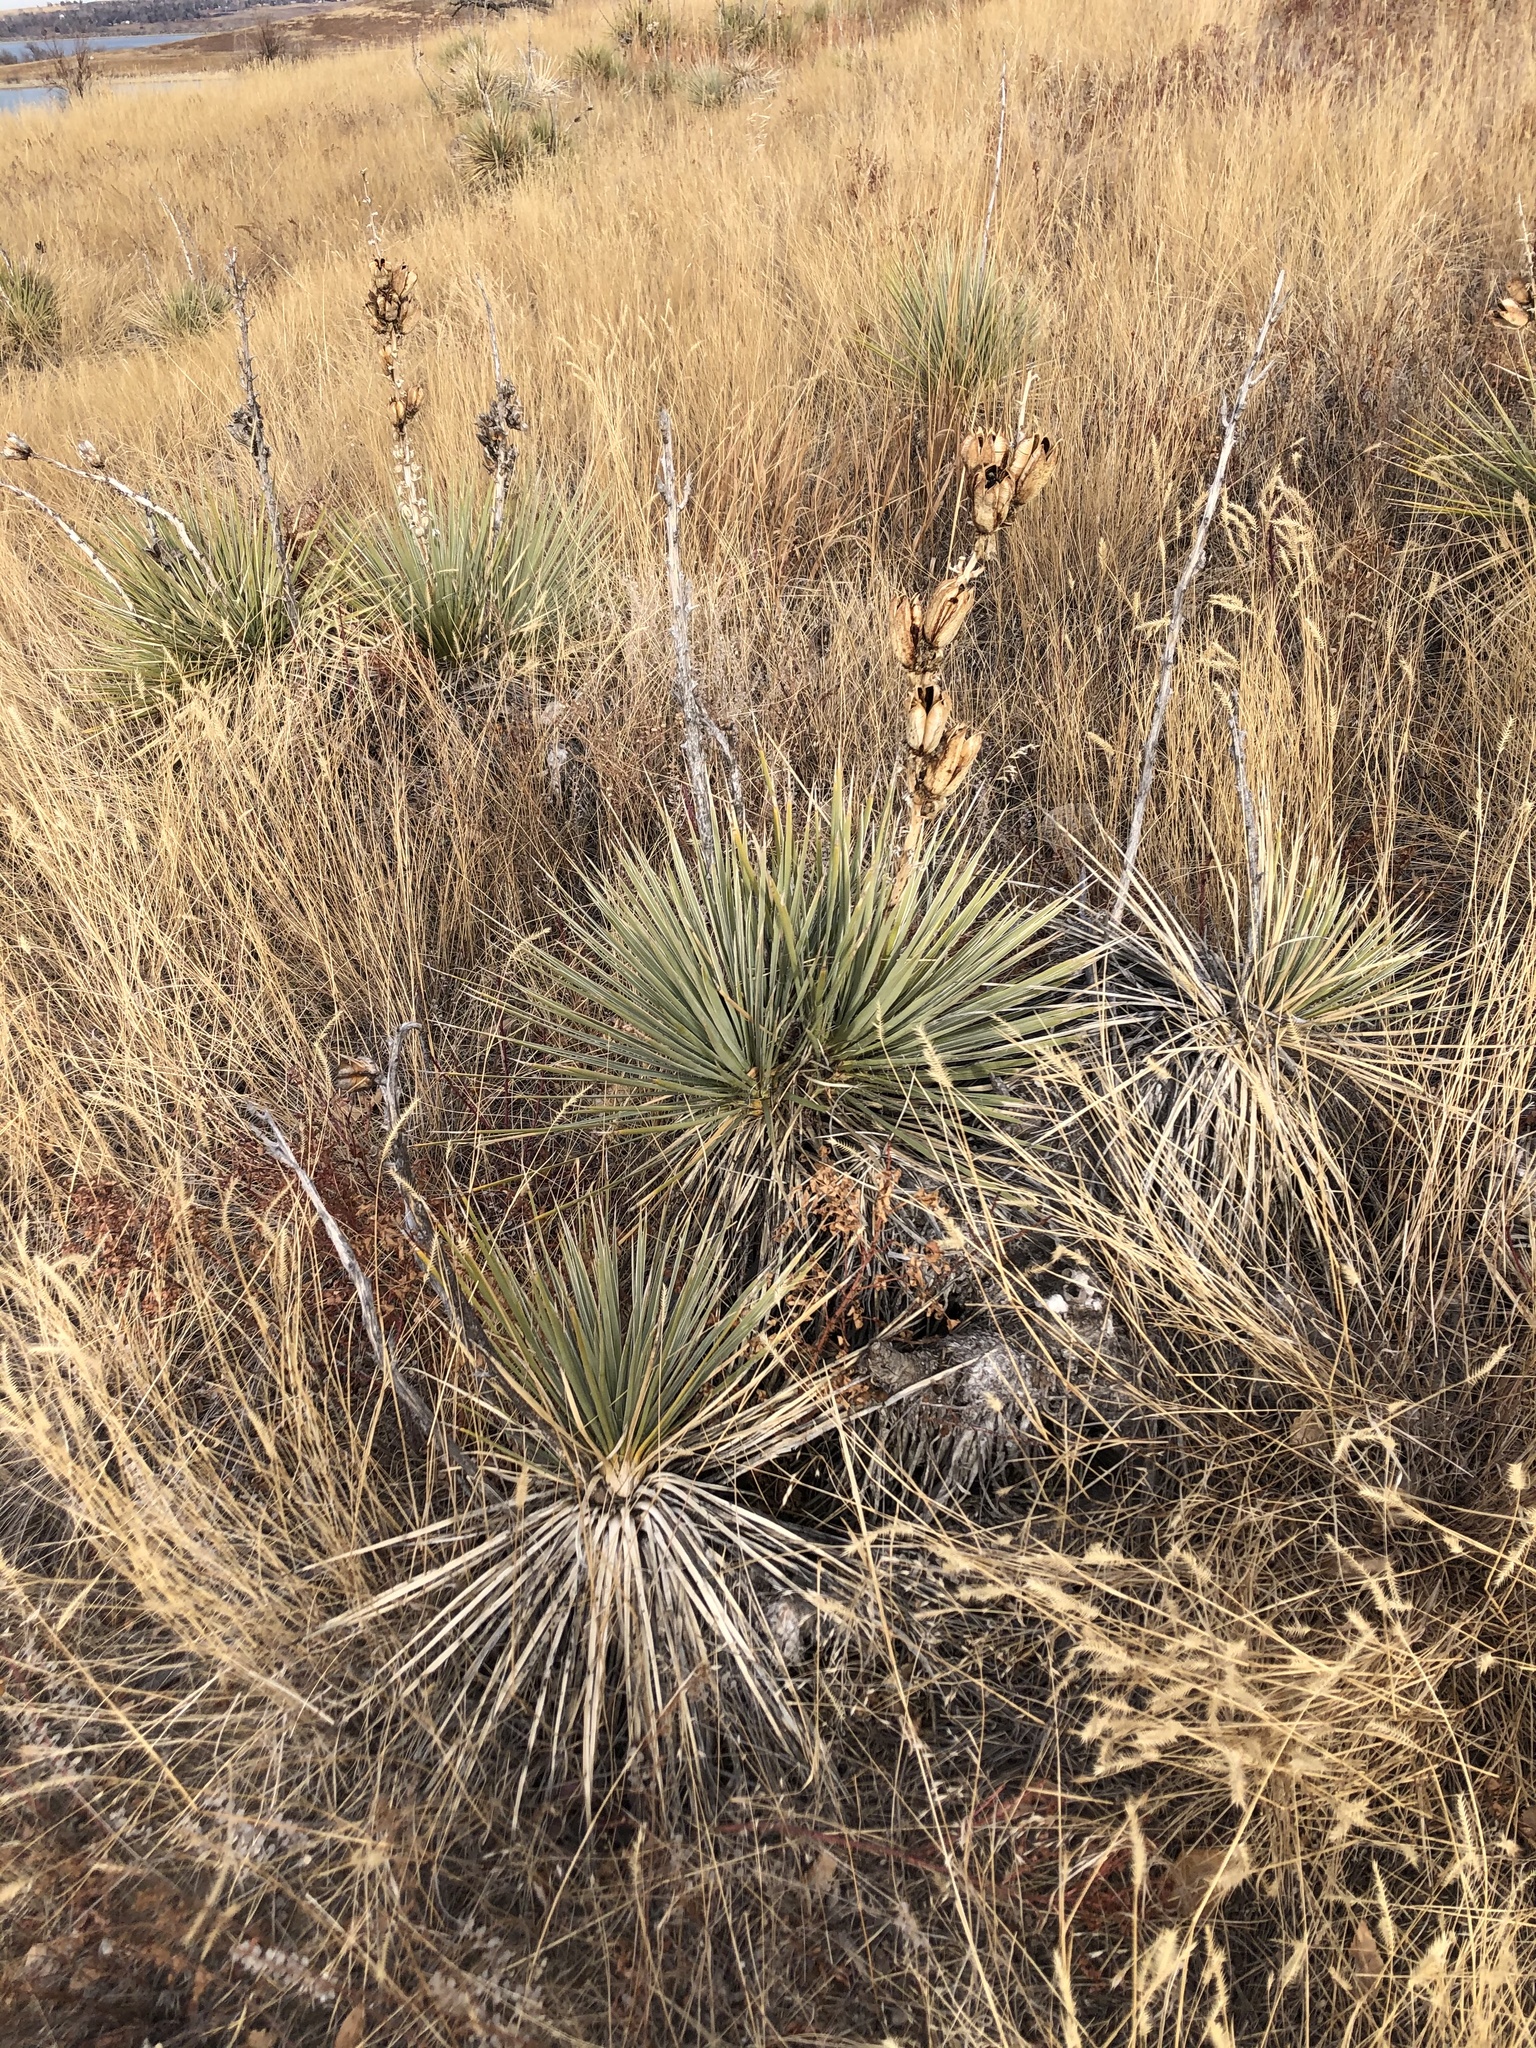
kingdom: Plantae
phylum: Tracheophyta
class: Liliopsida
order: Asparagales
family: Asparagaceae
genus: Yucca
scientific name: Yucca glauca
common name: Great plains yucca
